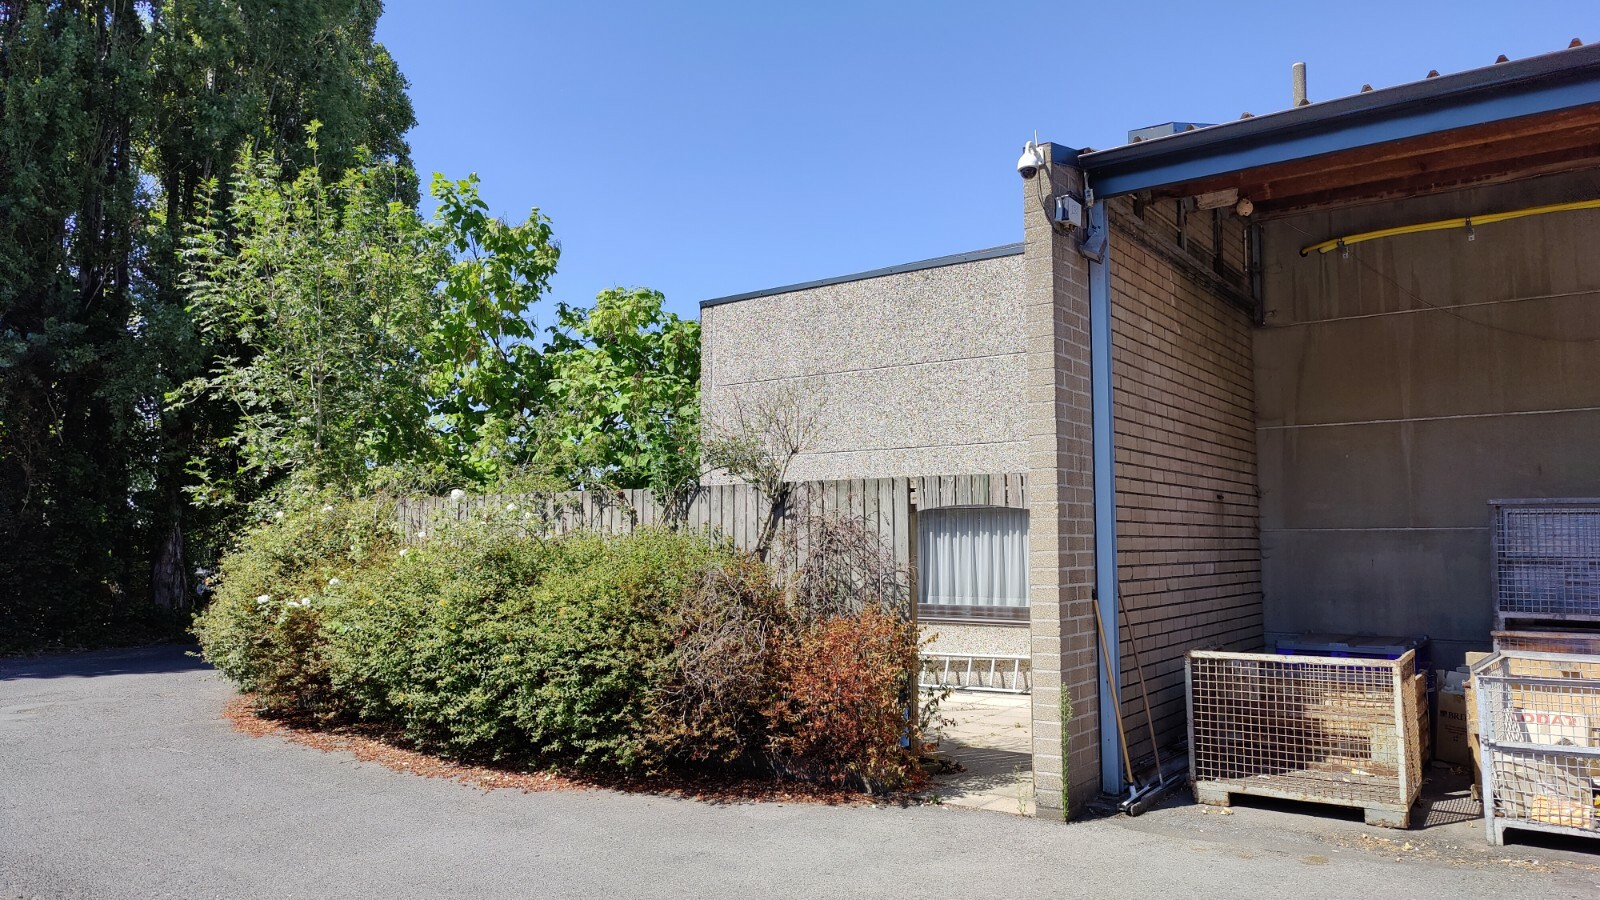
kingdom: Animalia
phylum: Arthropoda
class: Insecta
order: Hymenoptera
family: Vespidae
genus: Vespa
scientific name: Vespa velutina
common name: Asian hornet
